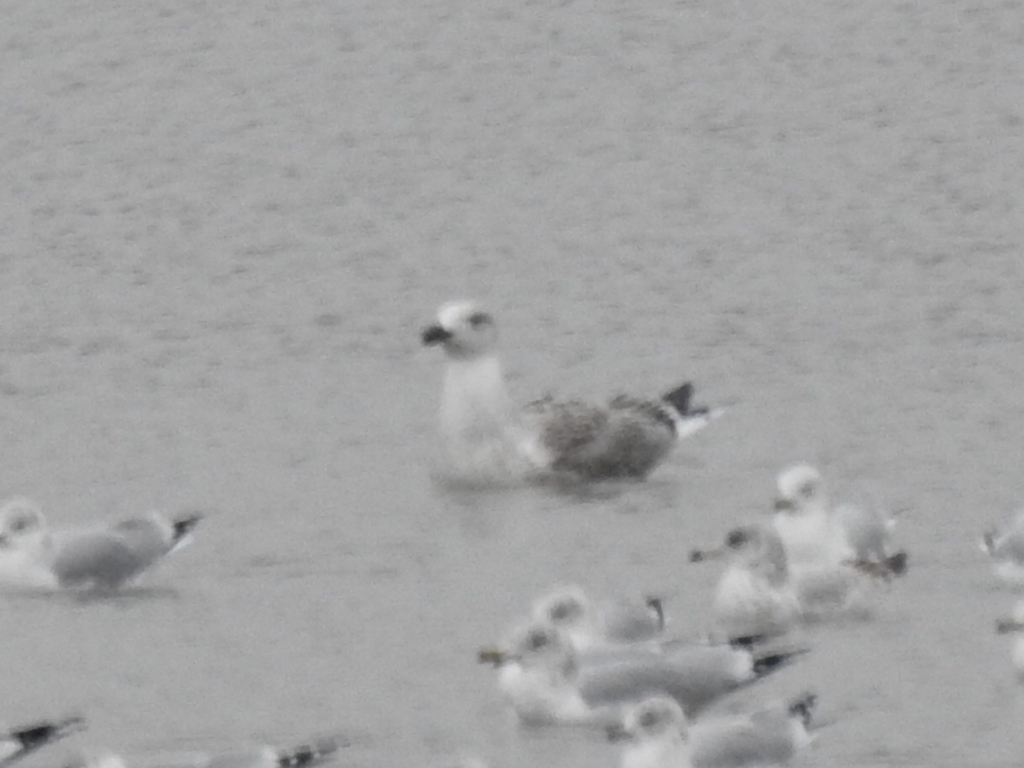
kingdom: Animalia
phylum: Chordata
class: Aves
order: Charadriiformes
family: Laridae
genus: Larus
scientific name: Larus marinus
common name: Great black-backed gull
